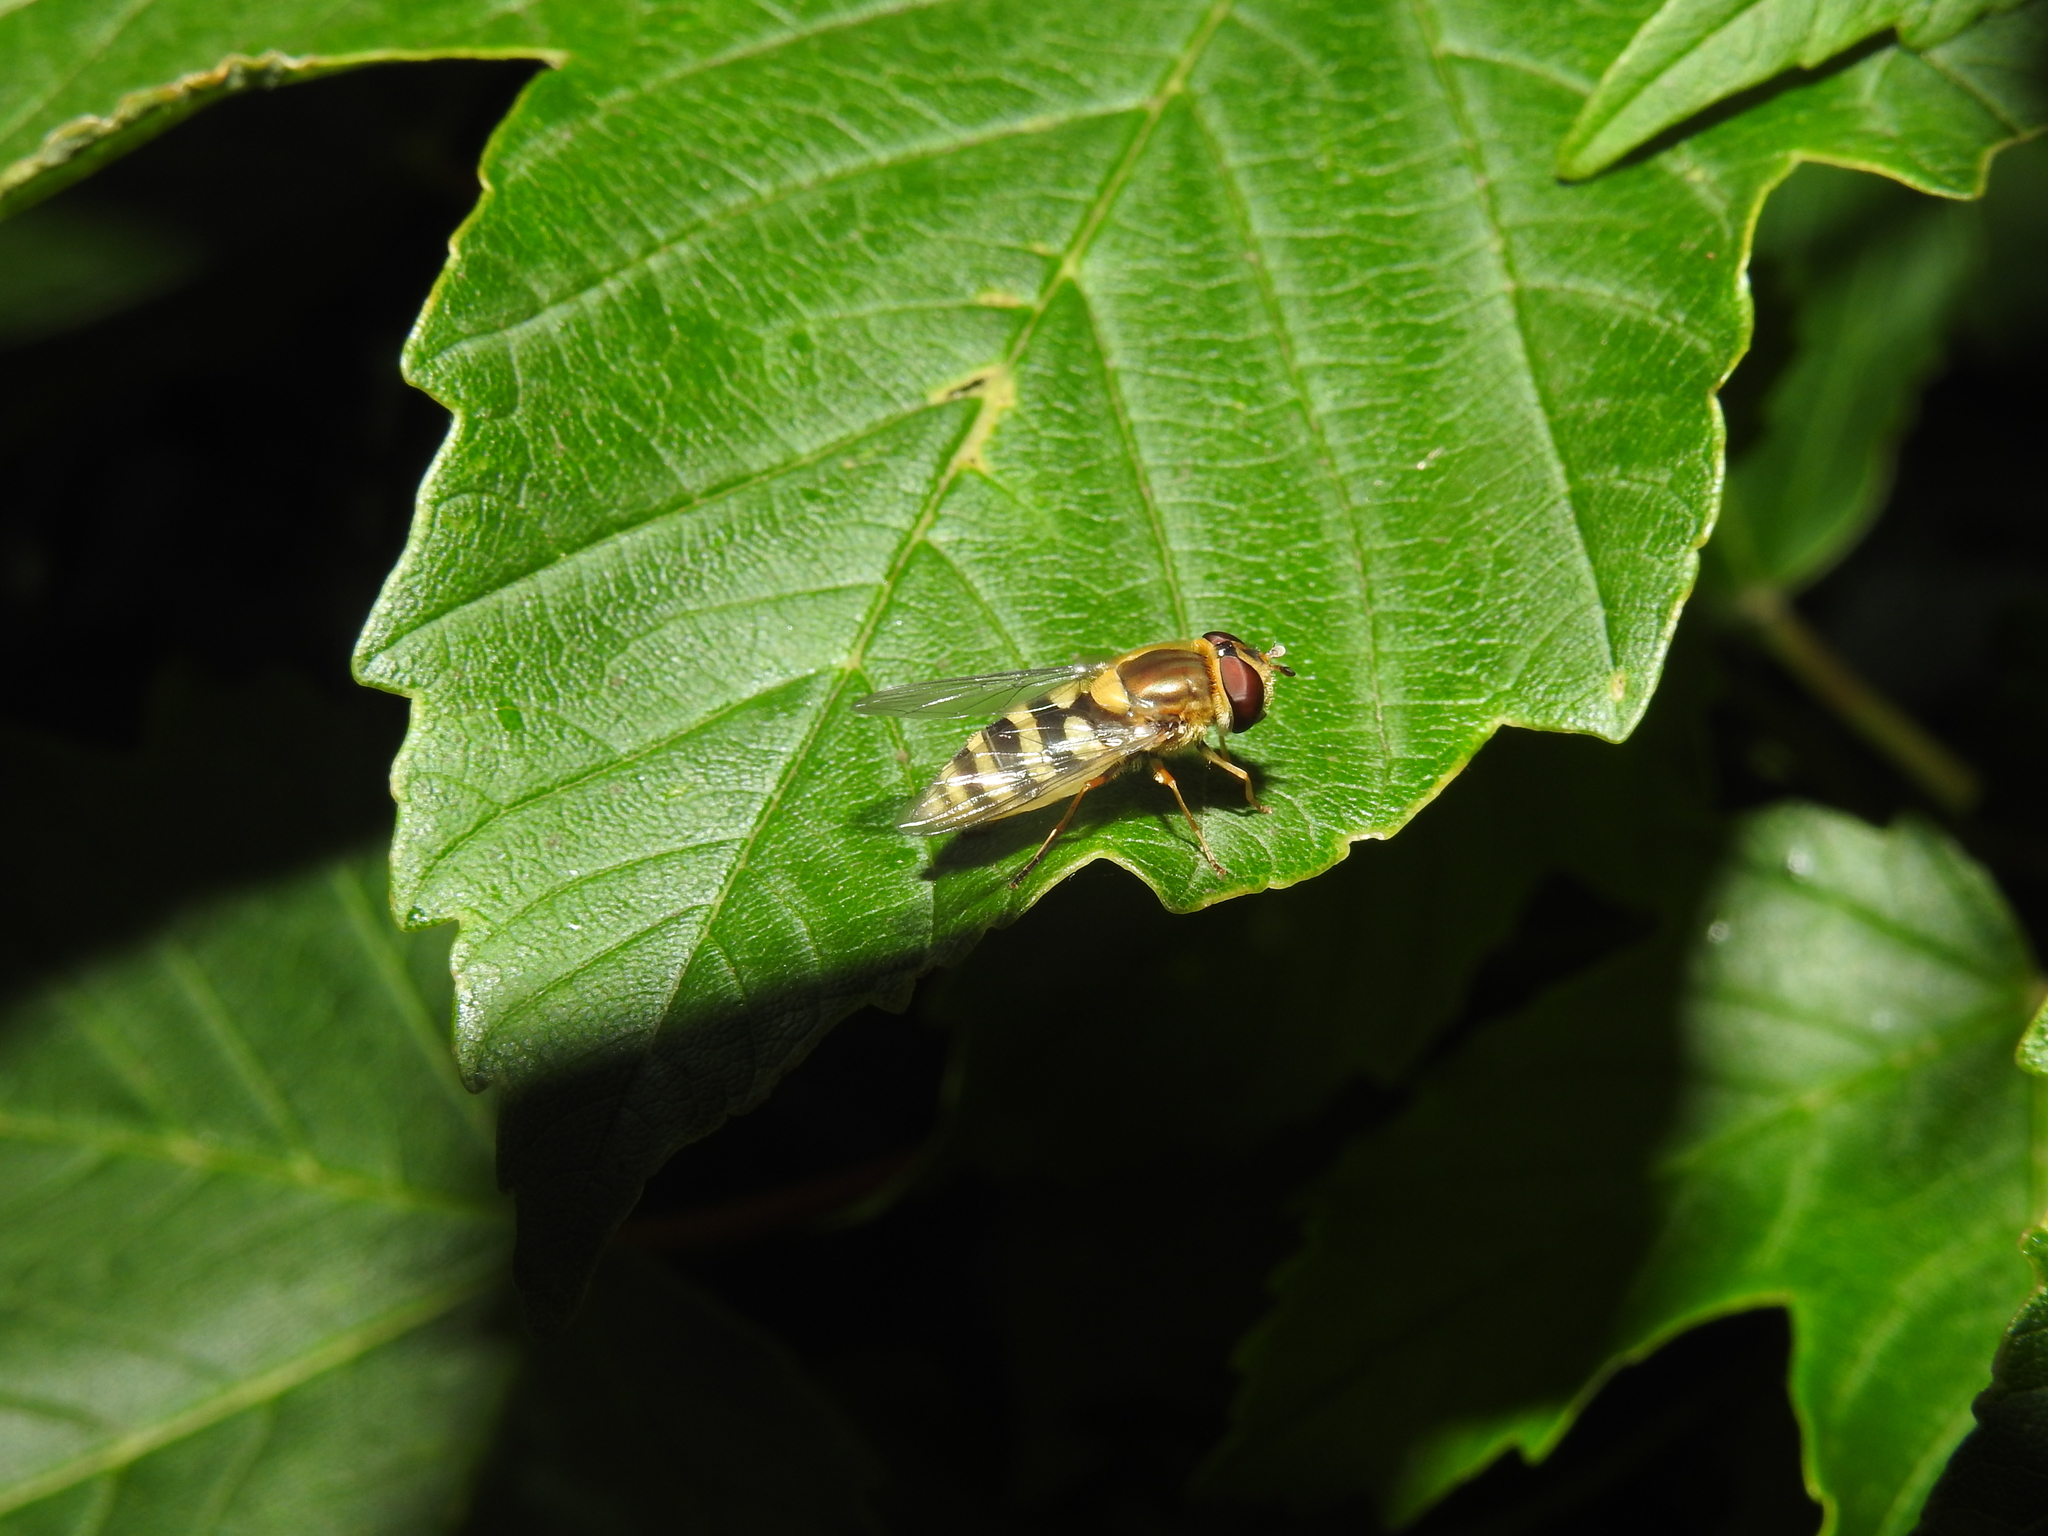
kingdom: Animalia
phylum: Arthropoda
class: Insecta
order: Diptera
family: Syrphidae
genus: Syrphus
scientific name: Syrphus
